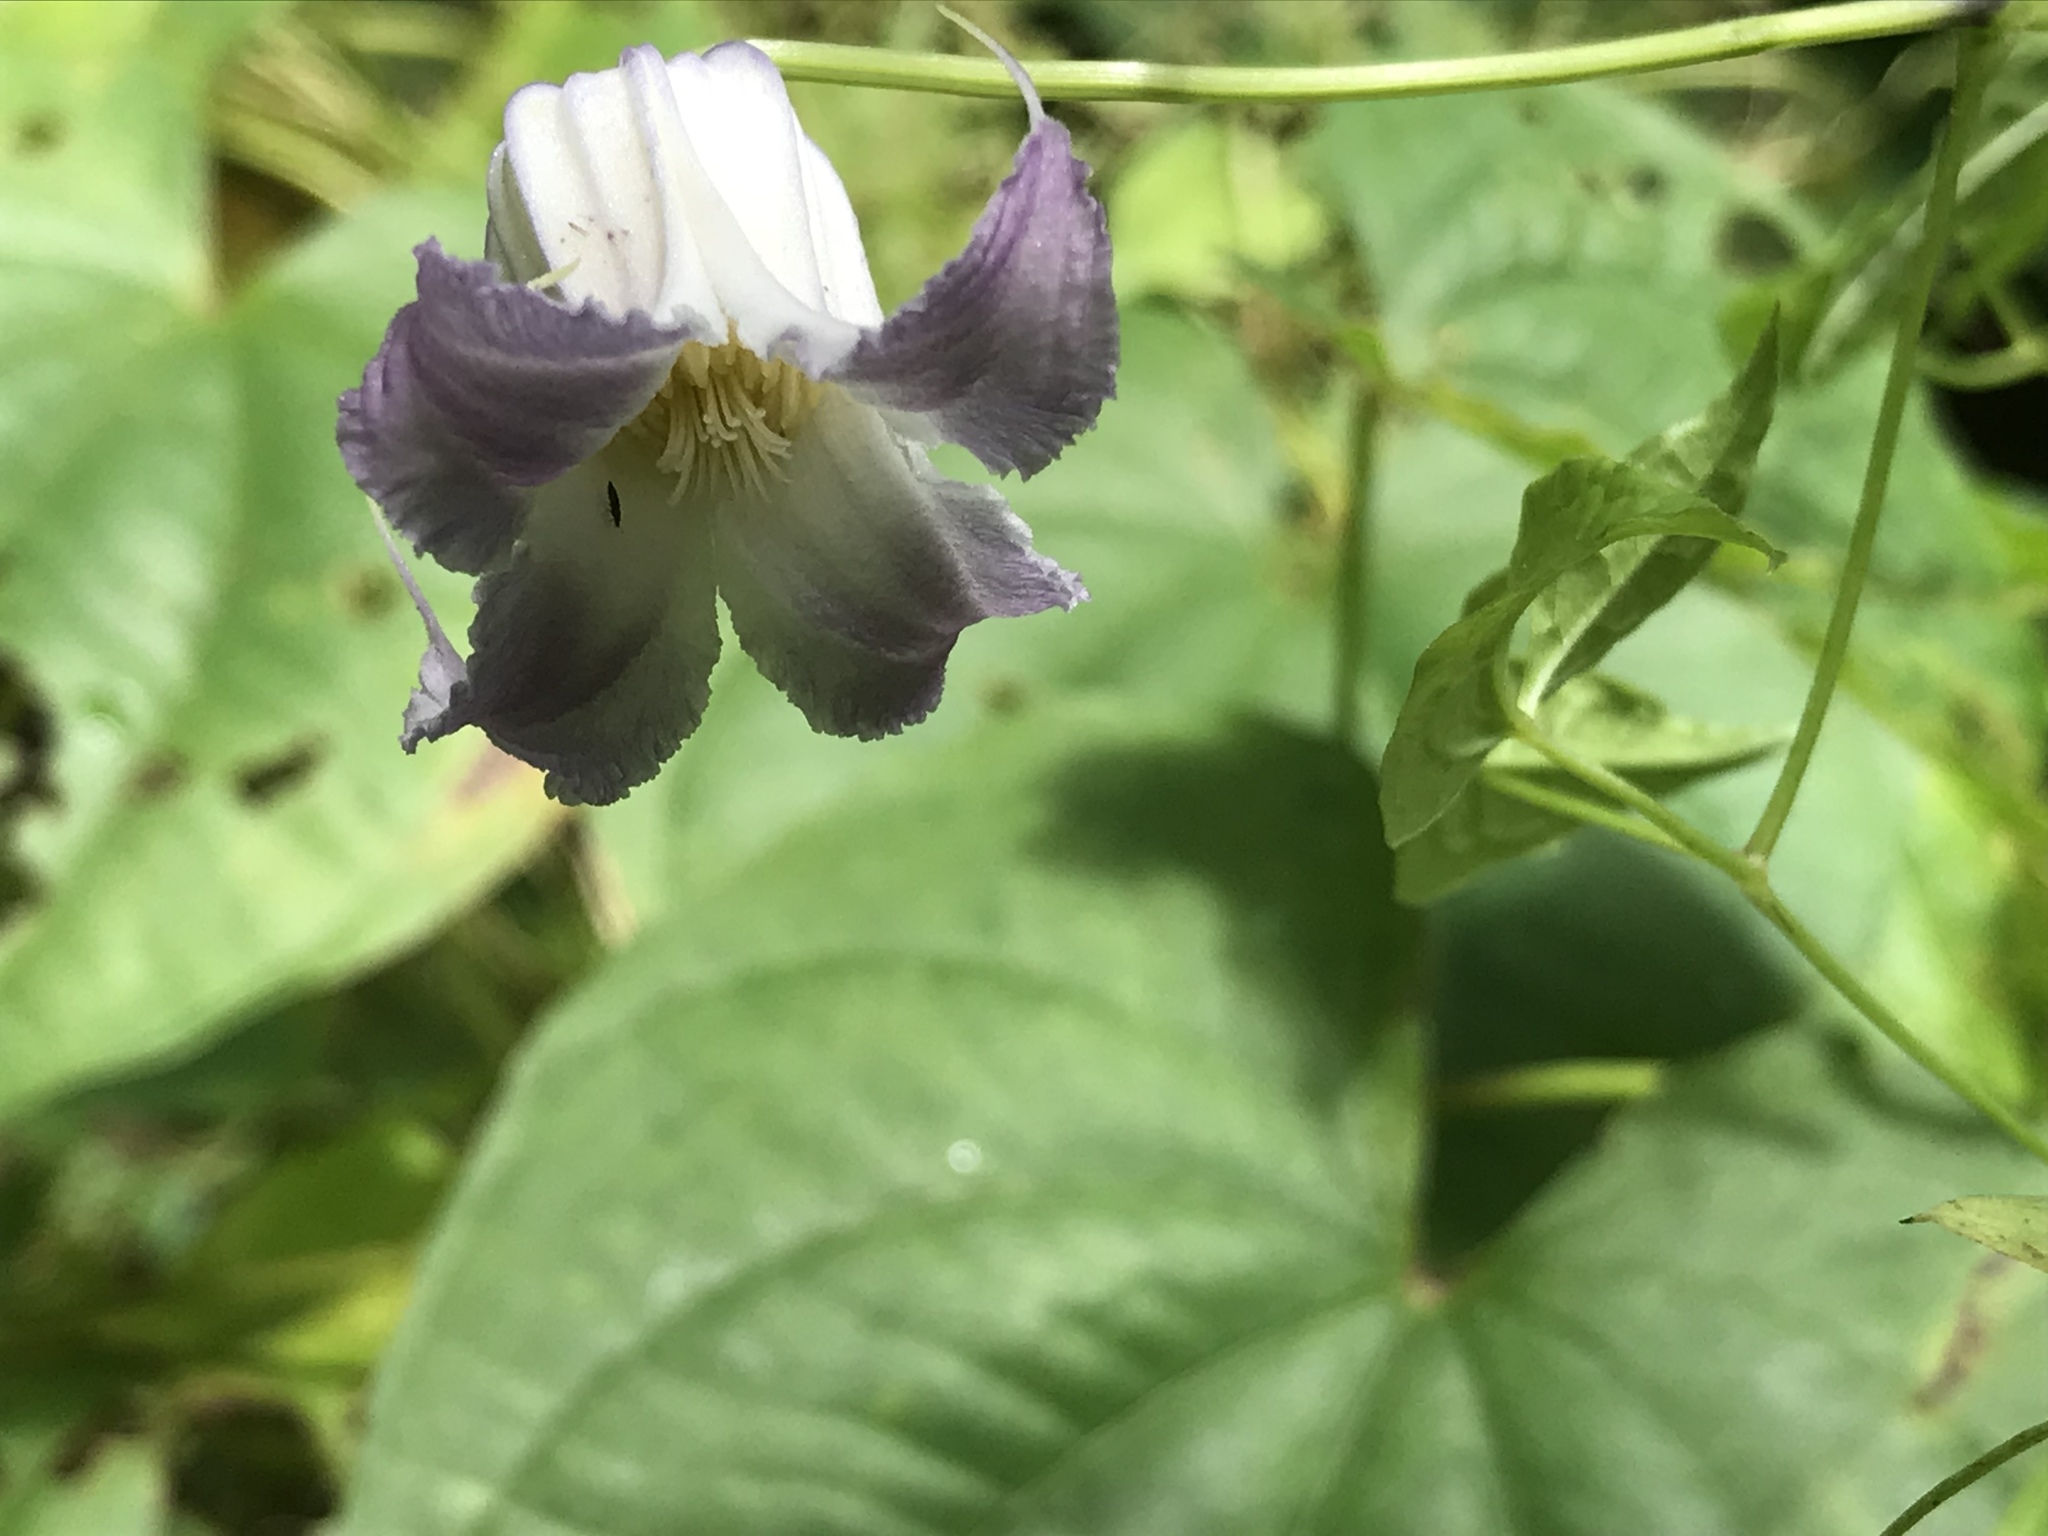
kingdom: Plantae
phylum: Tracheophyta
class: Magnoliopsida
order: Ranunculales
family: Ranunculaceae
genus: Clematis
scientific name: Clematis crispa
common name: Curly clematis
